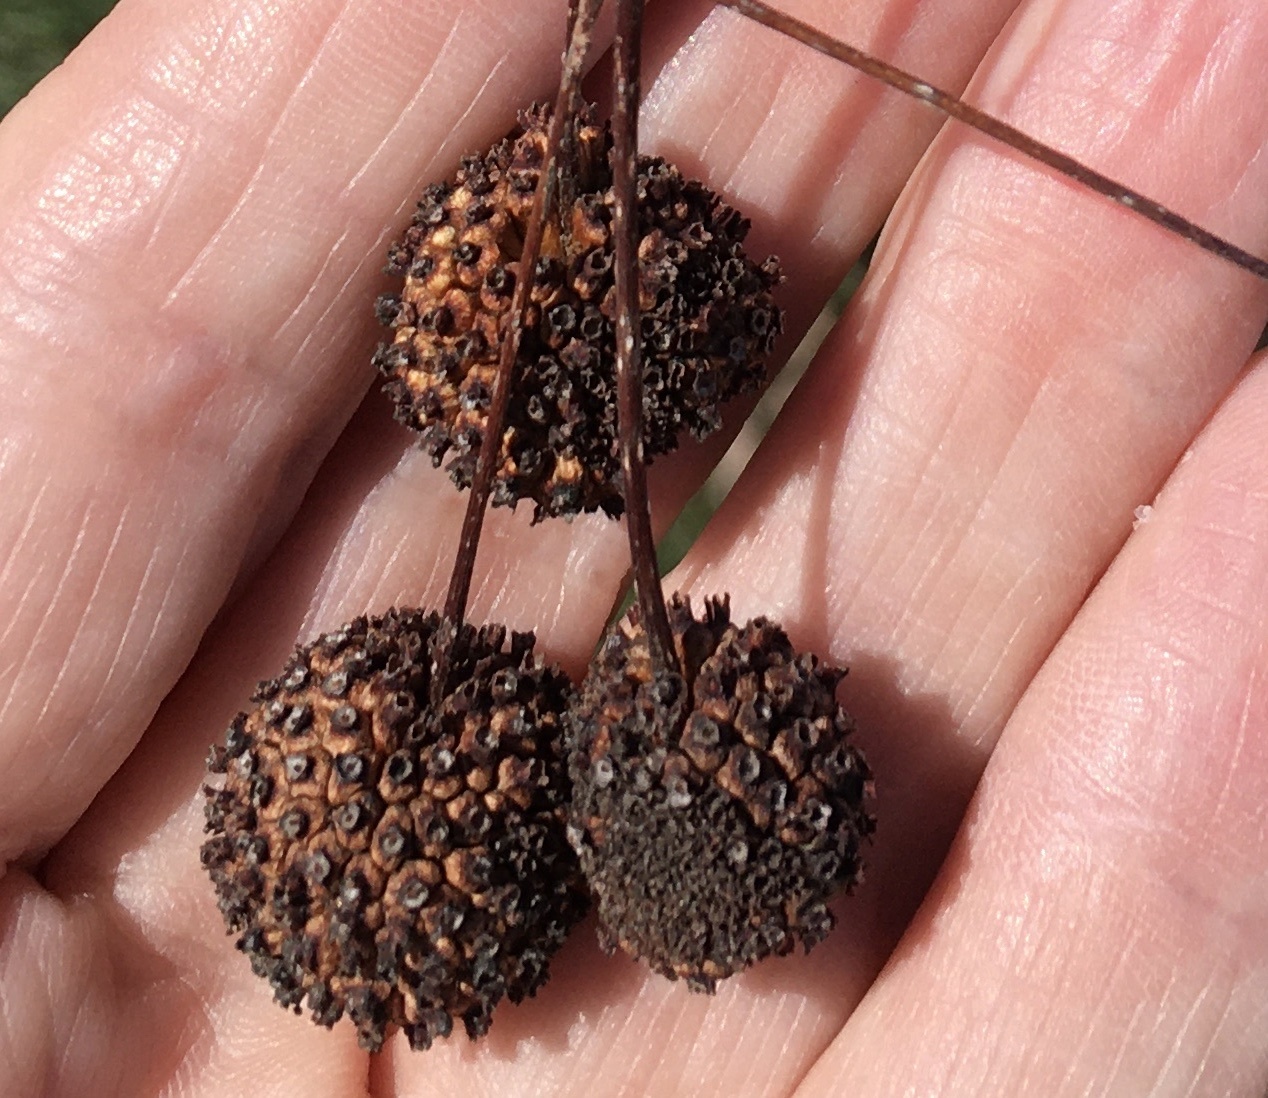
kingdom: Plantae
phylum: Tracheophyta
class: Magnoliopsida
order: Gentianales
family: Rubiaceae
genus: Cephalanthus
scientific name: Cephalanthus occidentalis
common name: Button-willow
